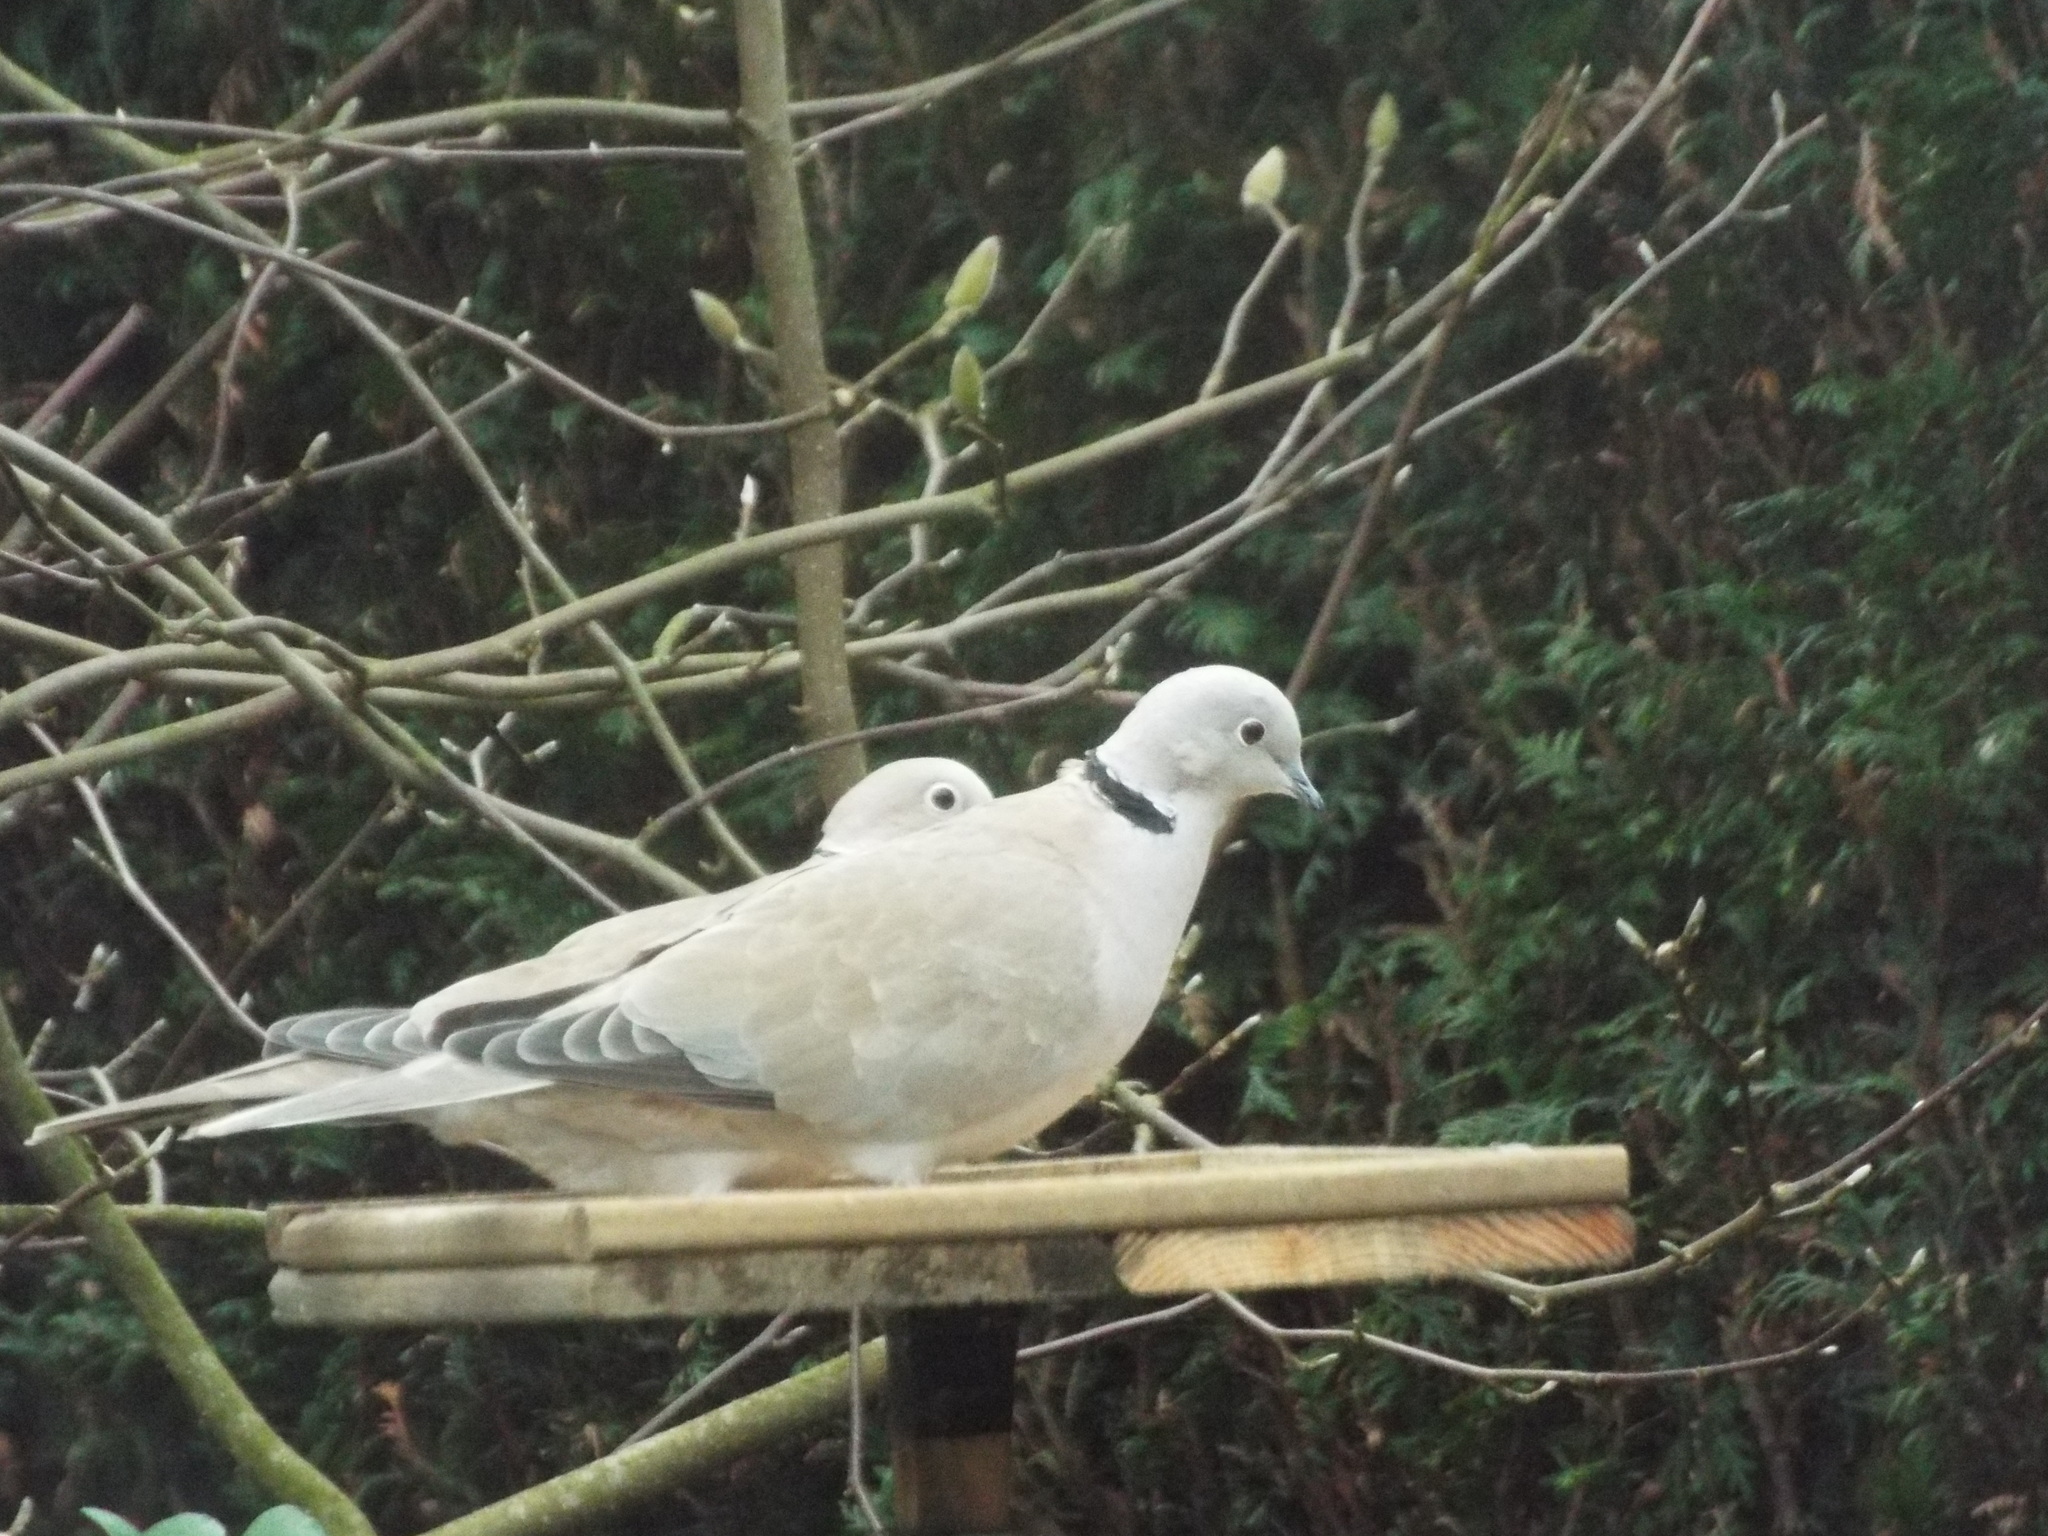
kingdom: Animalia
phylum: Chordata
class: Aves
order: Columbiformes
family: Columbidae
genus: Streptopelia
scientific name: Streptopelia decaocto
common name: Eurasian collared dove
